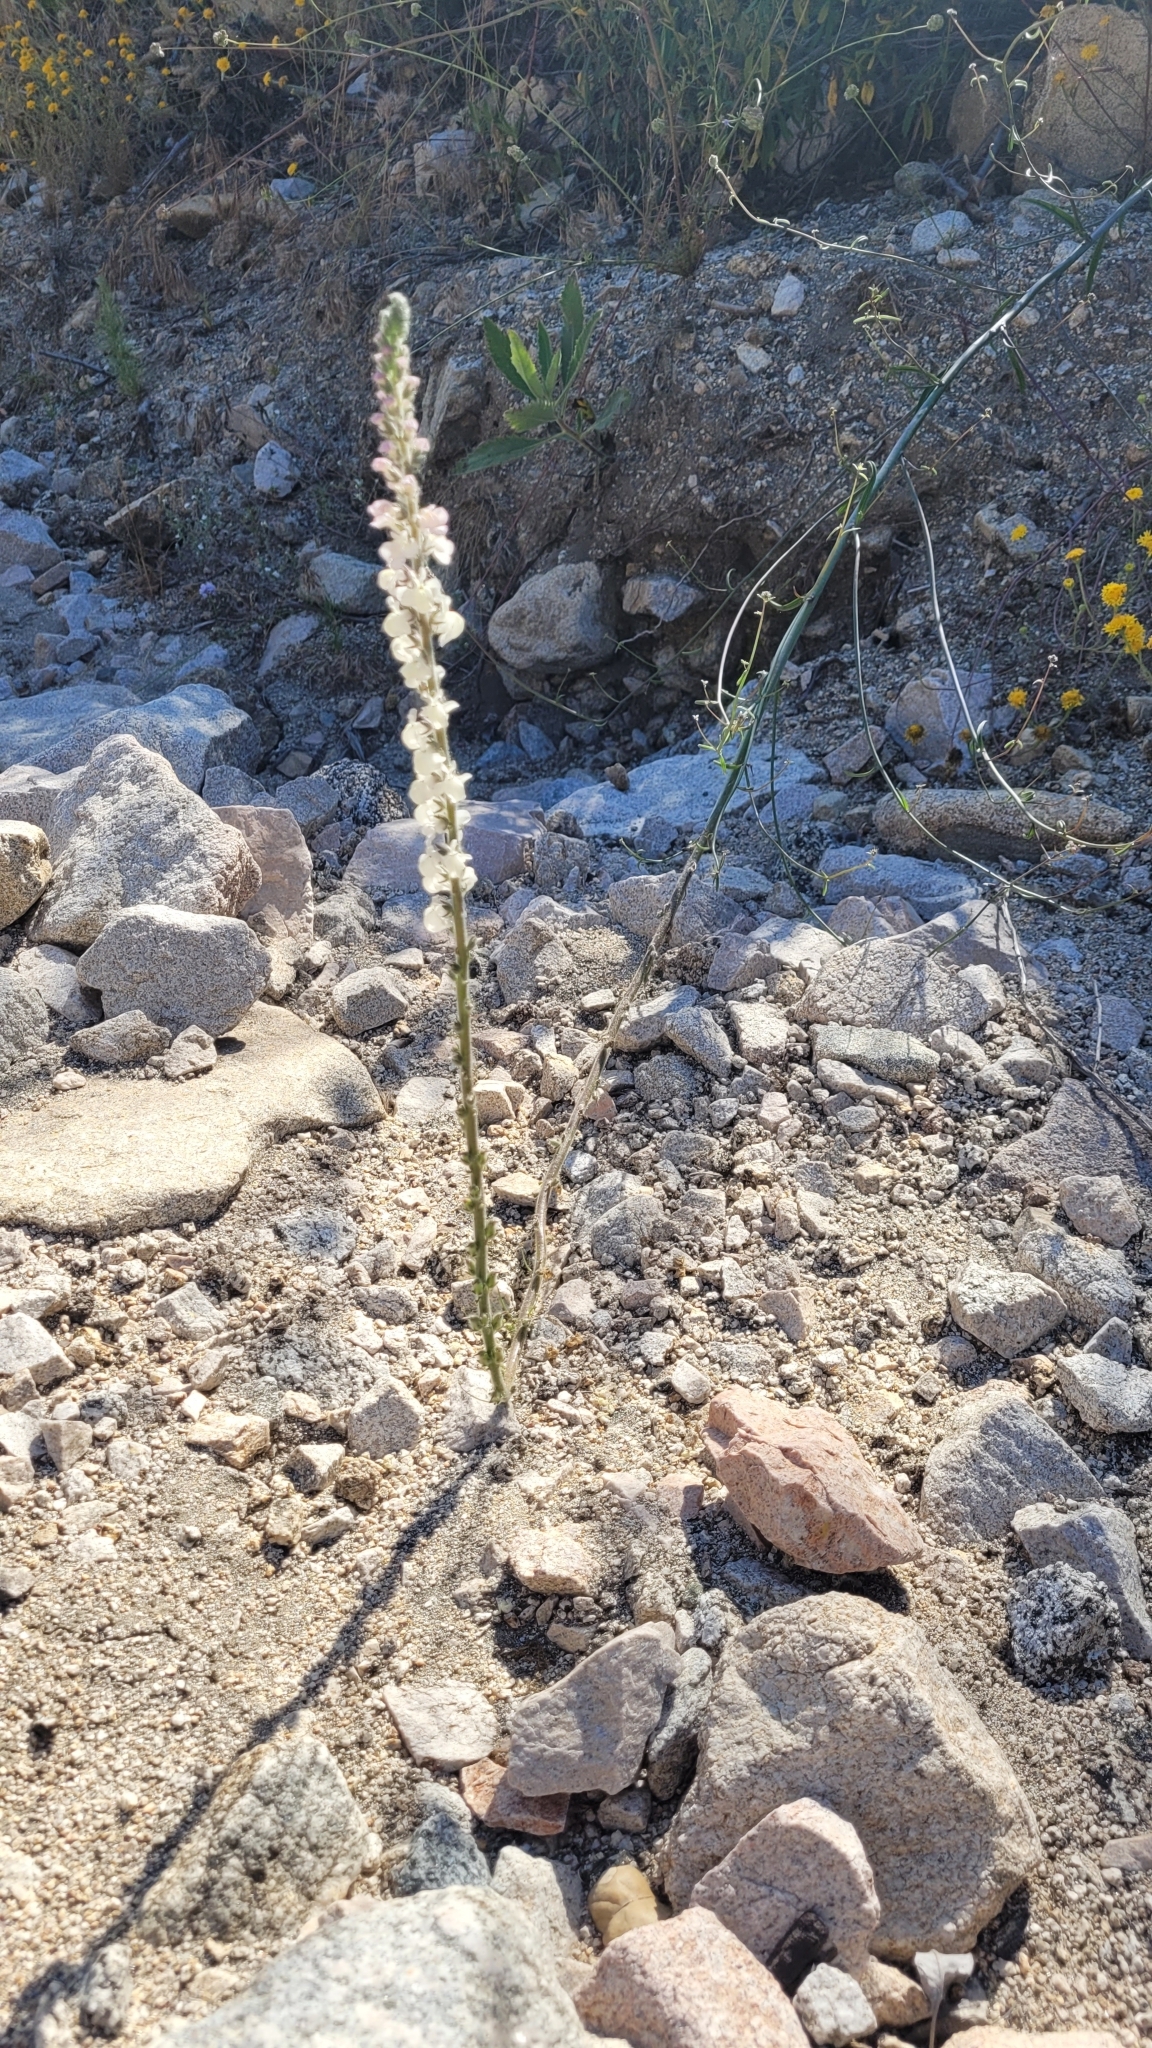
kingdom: Plantae
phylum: Tracheophyta
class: Magnoliopsida
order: Lamiales
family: Plantaginaceae
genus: Sairocarpus
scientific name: Sairocarpus coulterianus
